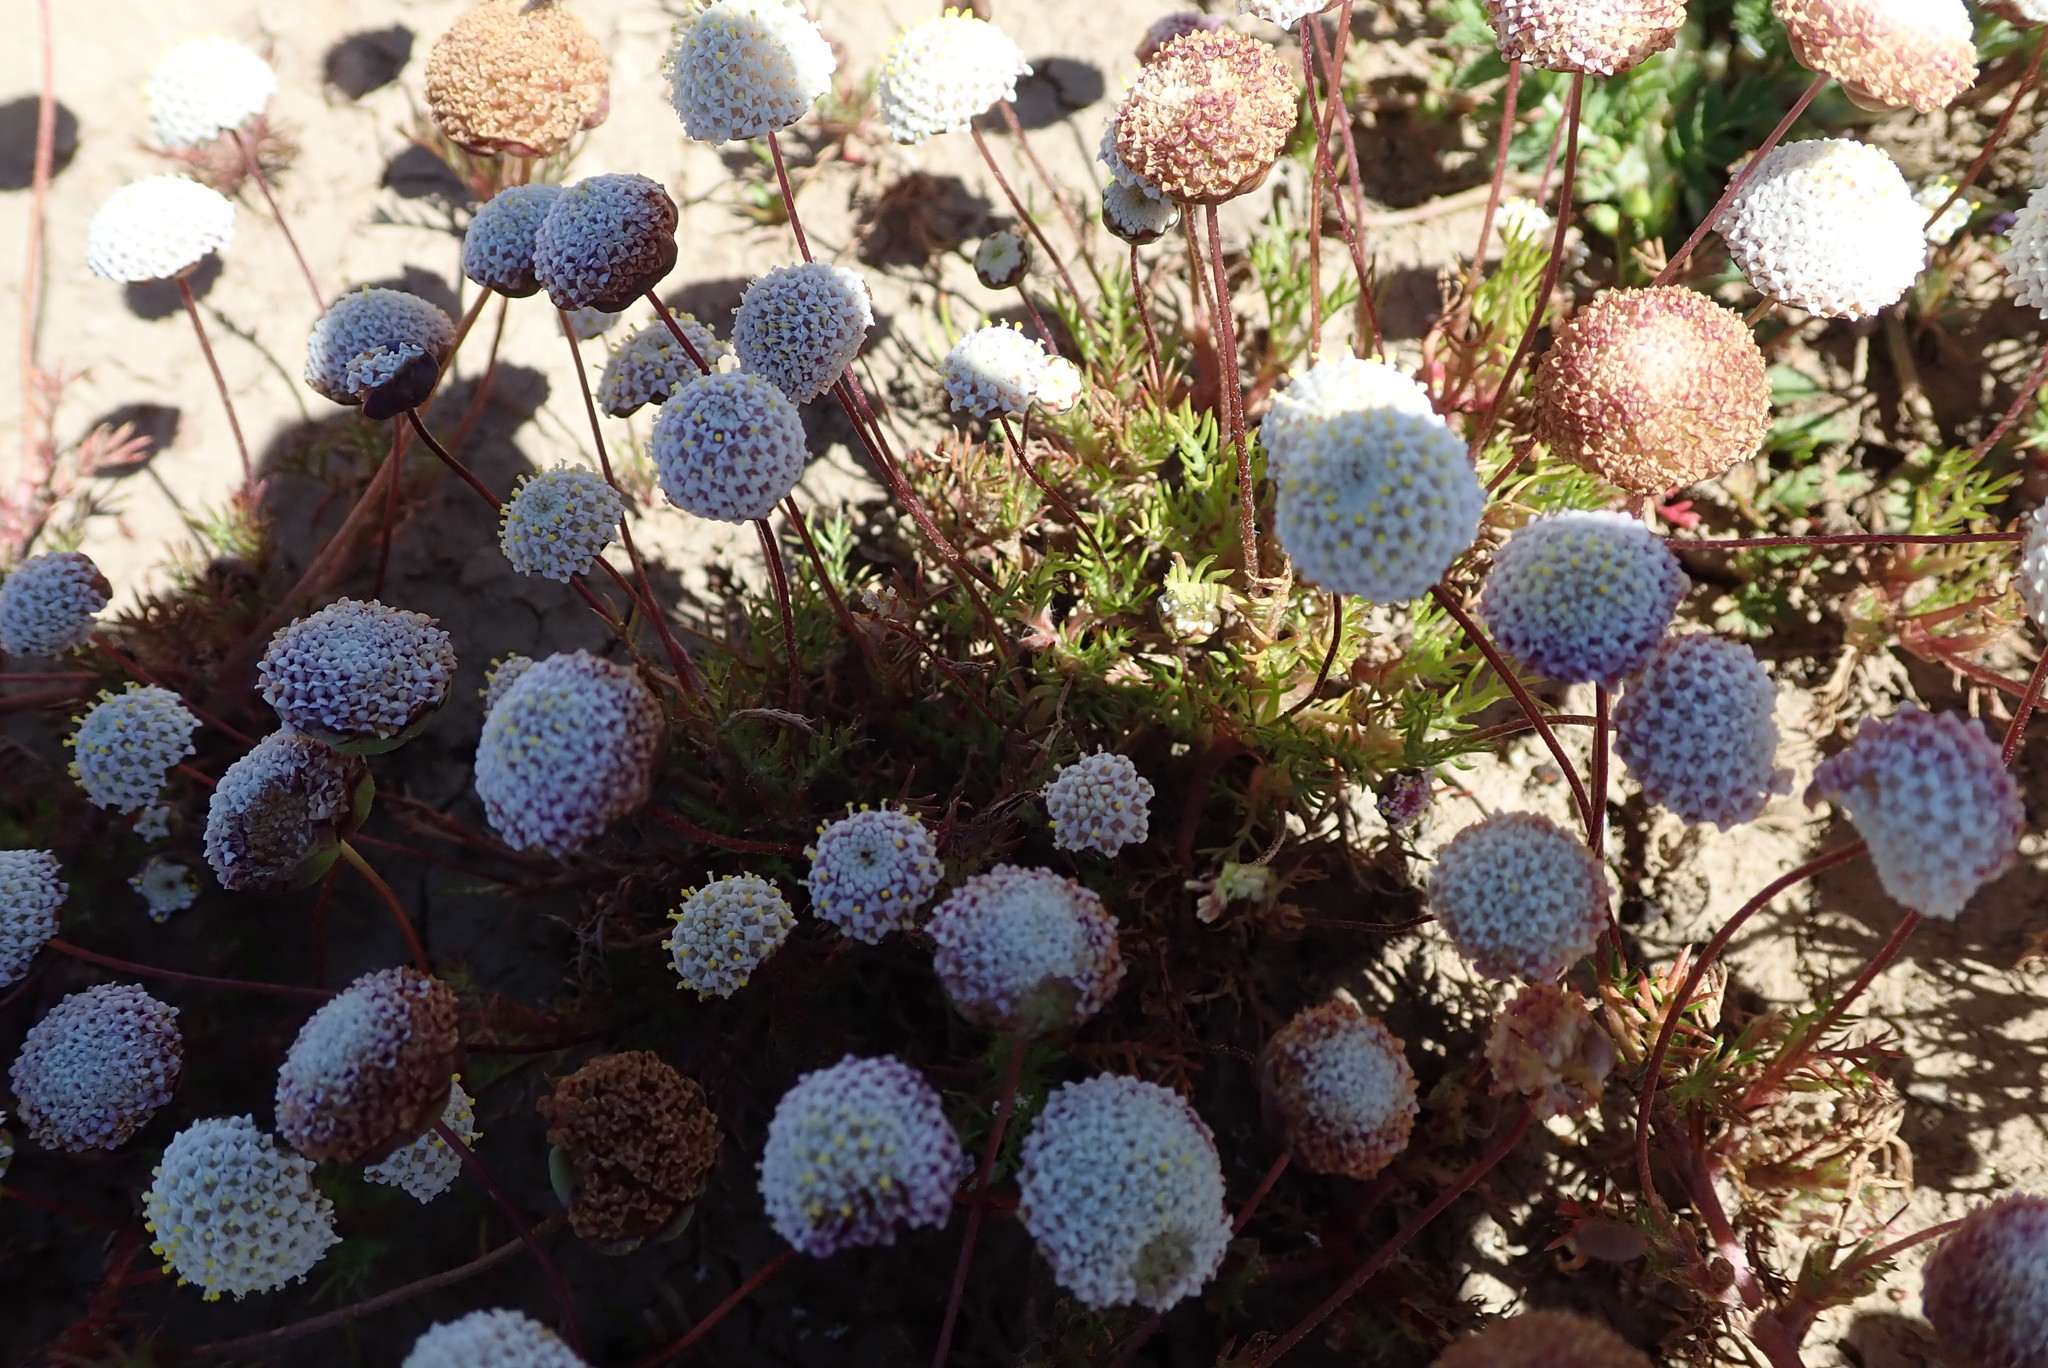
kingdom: Plantae
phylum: Tracheophyta
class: Magnoliopsida
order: Asterales
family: Asteraceae
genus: Cotula
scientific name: Cotula nudicaulis
